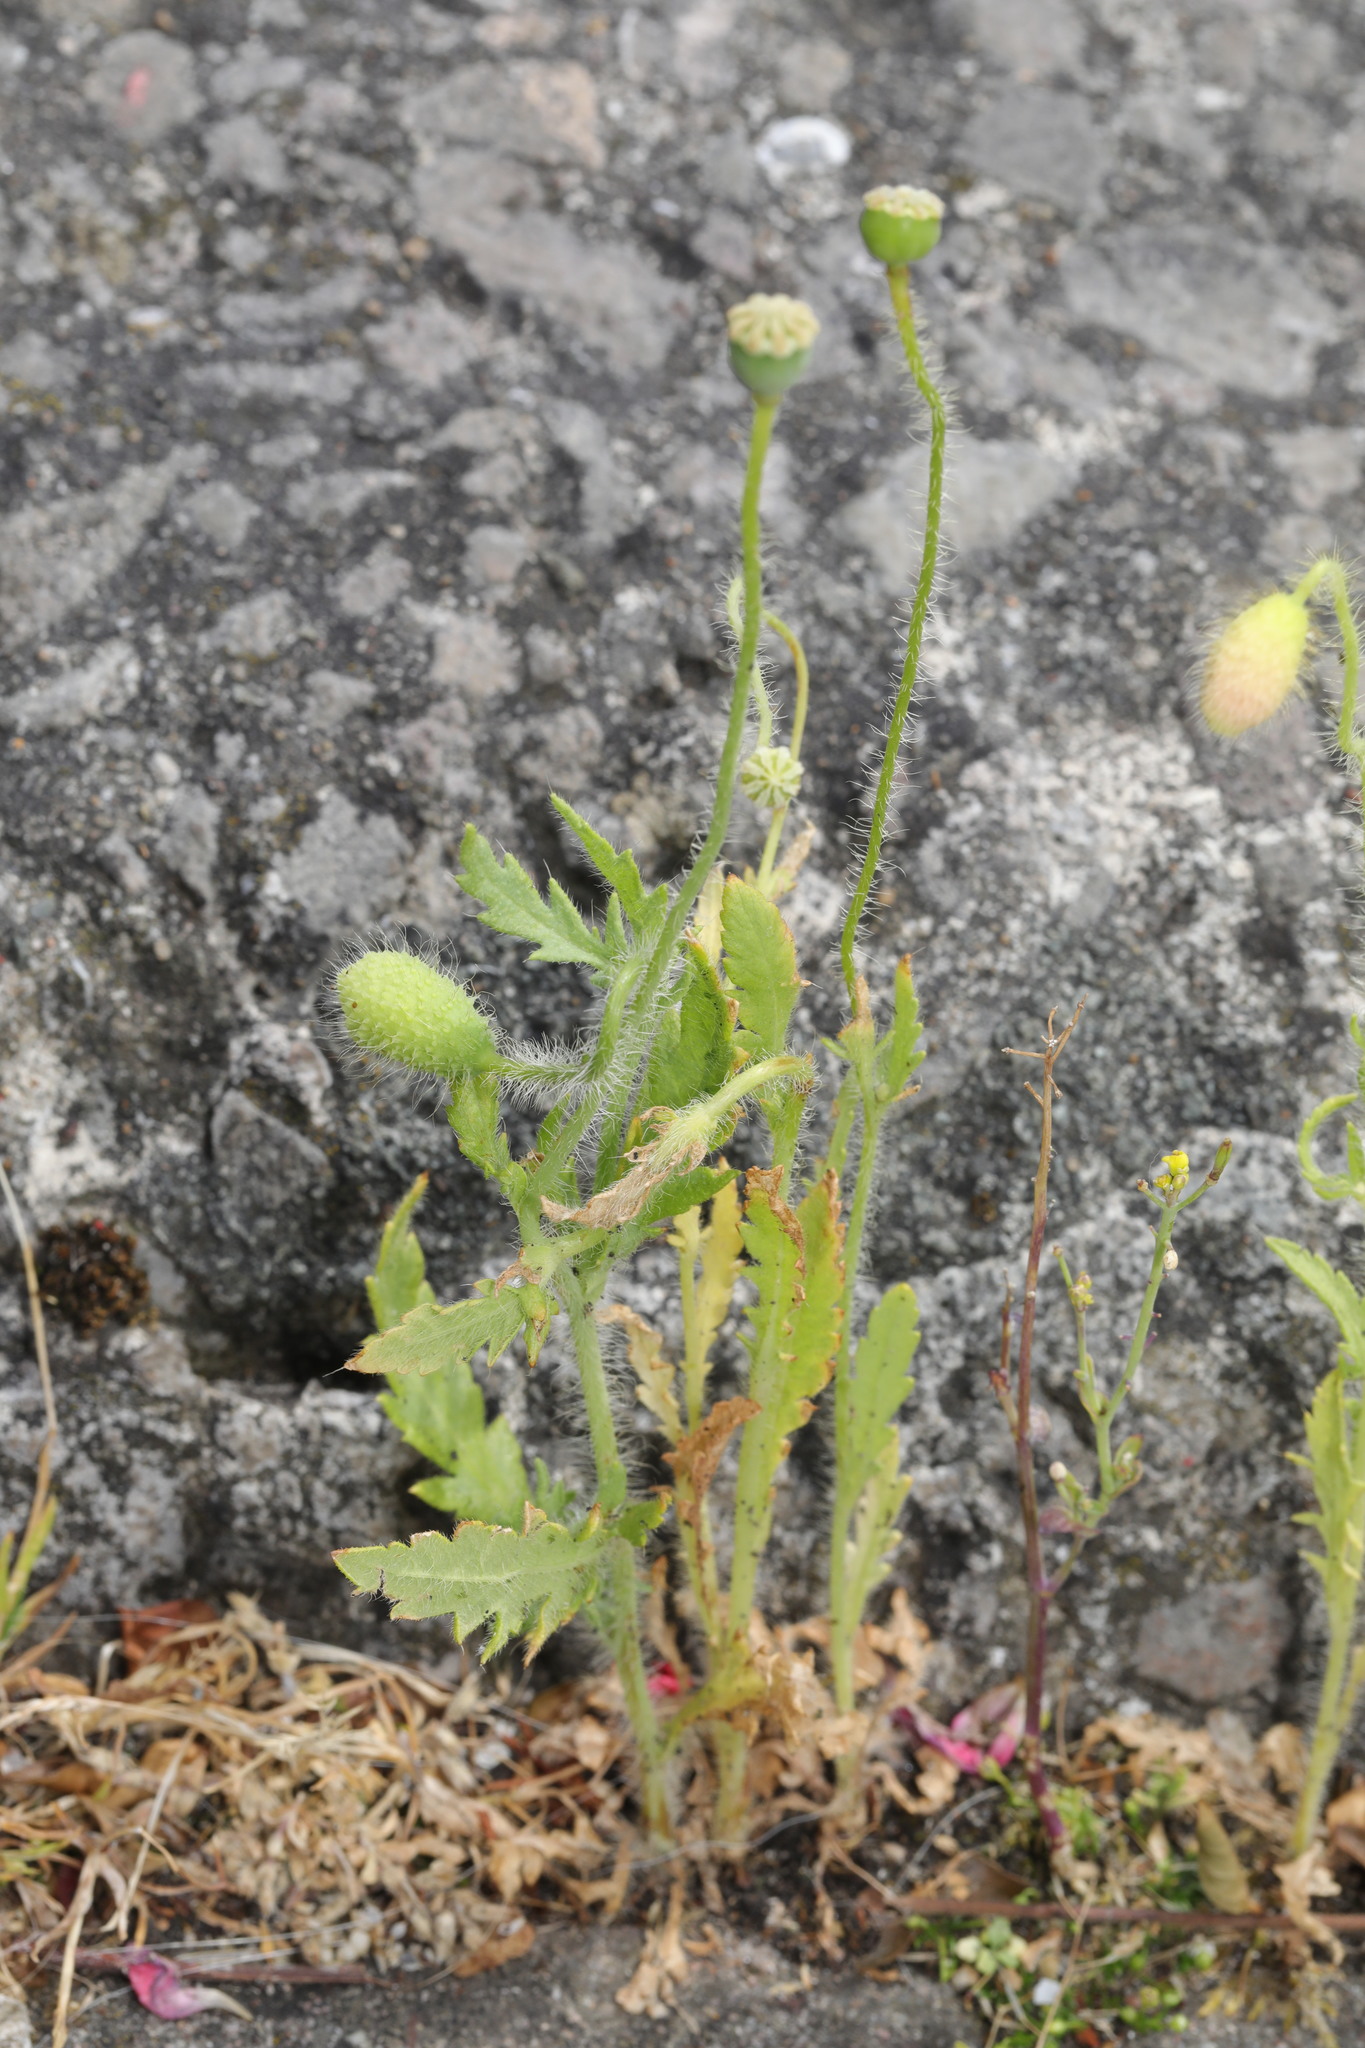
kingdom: Plantae
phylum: Tracheophyta
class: Magnoliopsida
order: Ranunculales
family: Papaveraceae
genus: Papaver
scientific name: Papaver rhoeas
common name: Corn poppy
